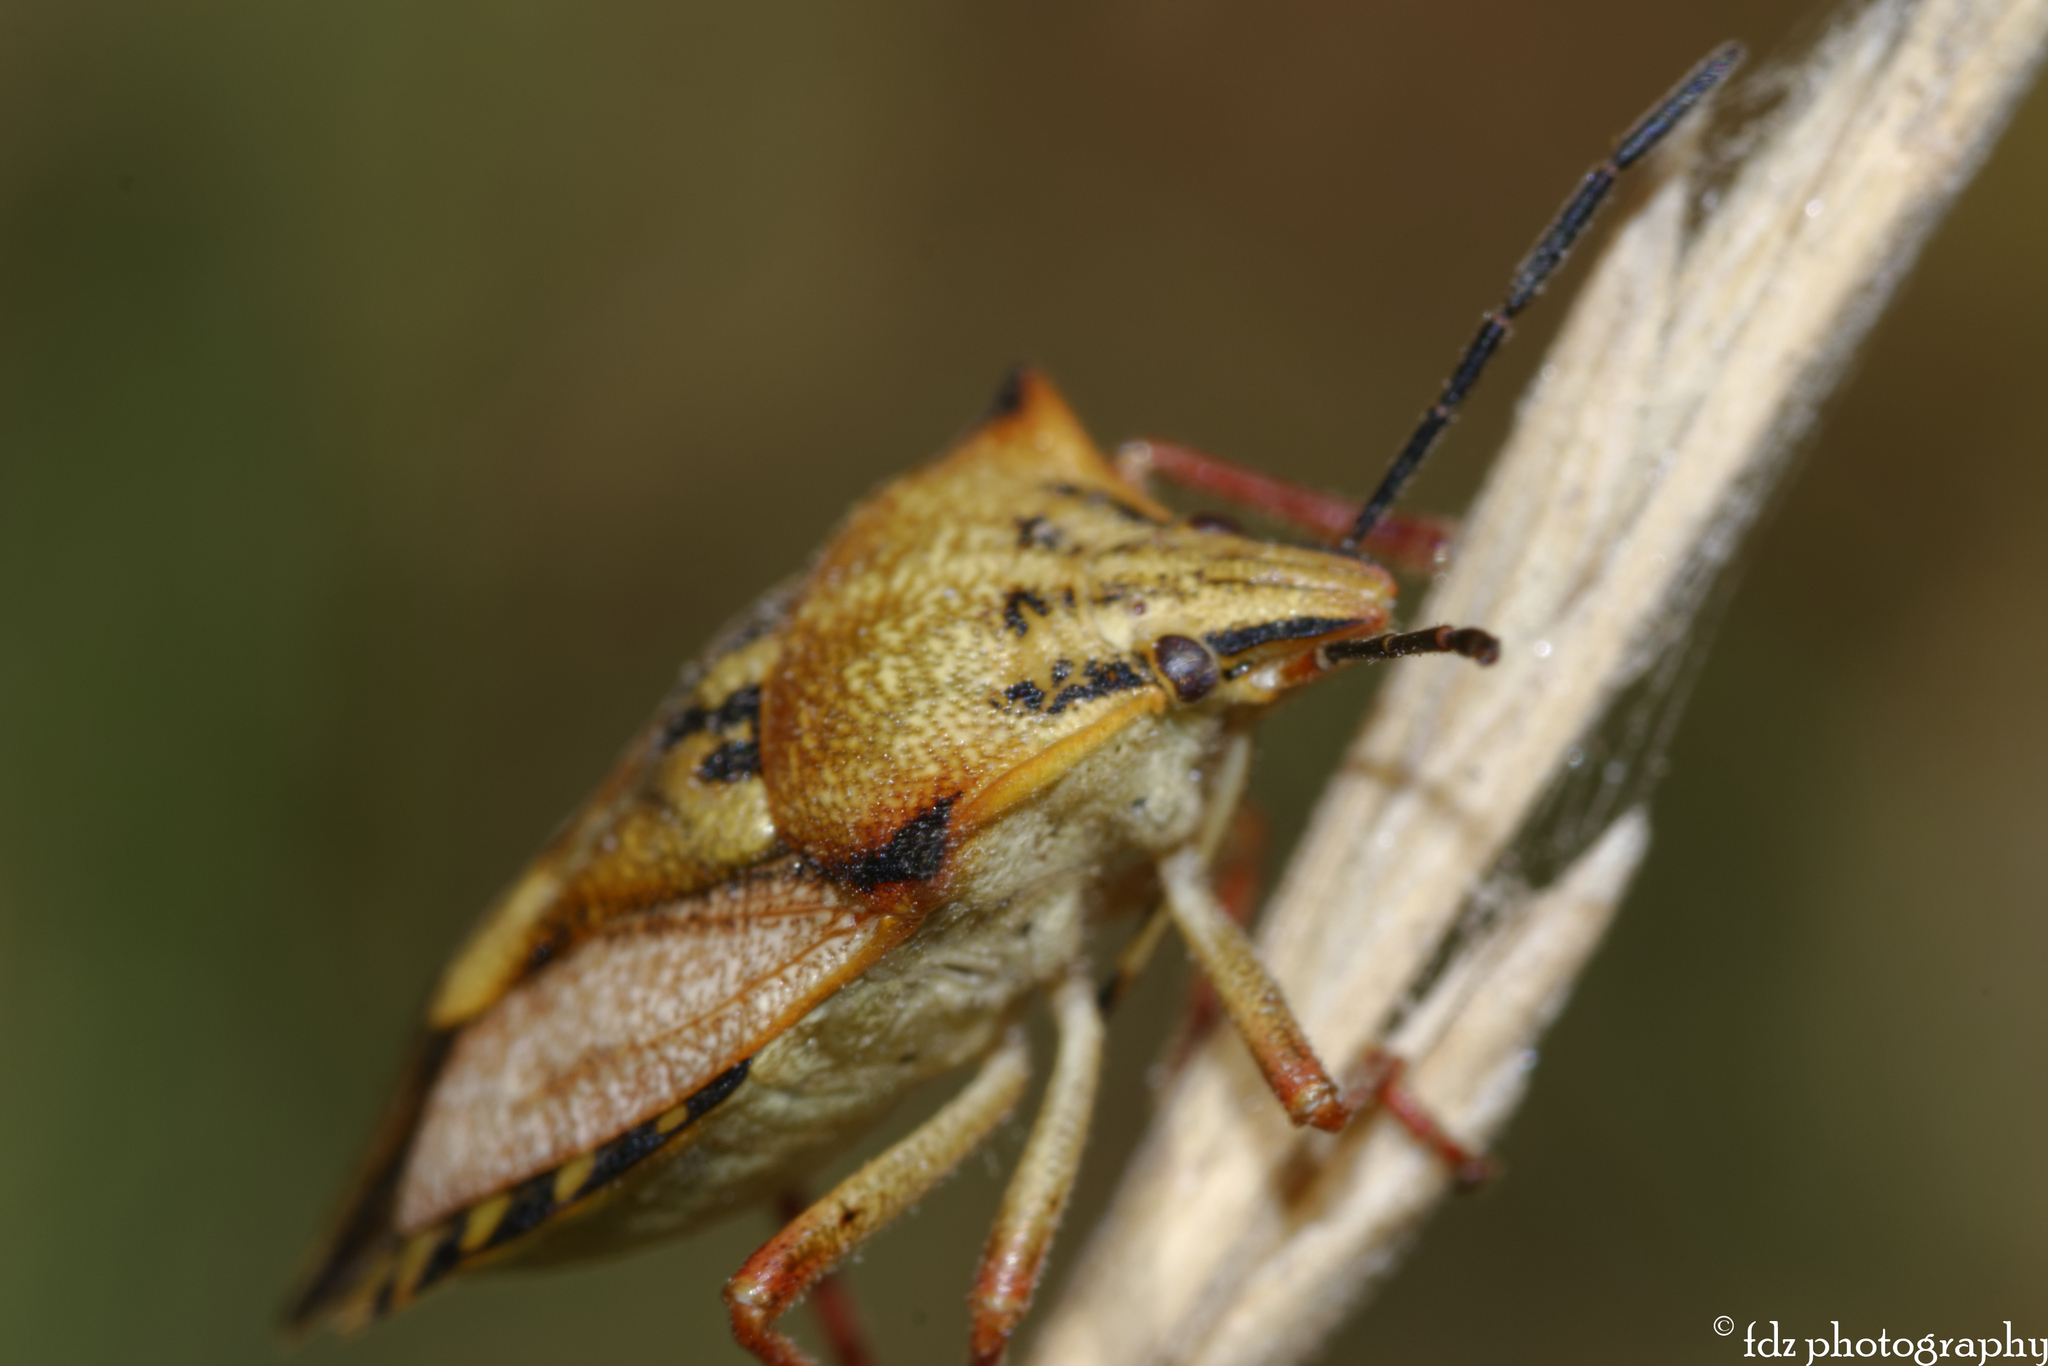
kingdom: Animalia
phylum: Arthropoda
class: Insecta
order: Hemiptera
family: Pentatomidae
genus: Carpocoris
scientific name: Carpocoris mediterraneus
